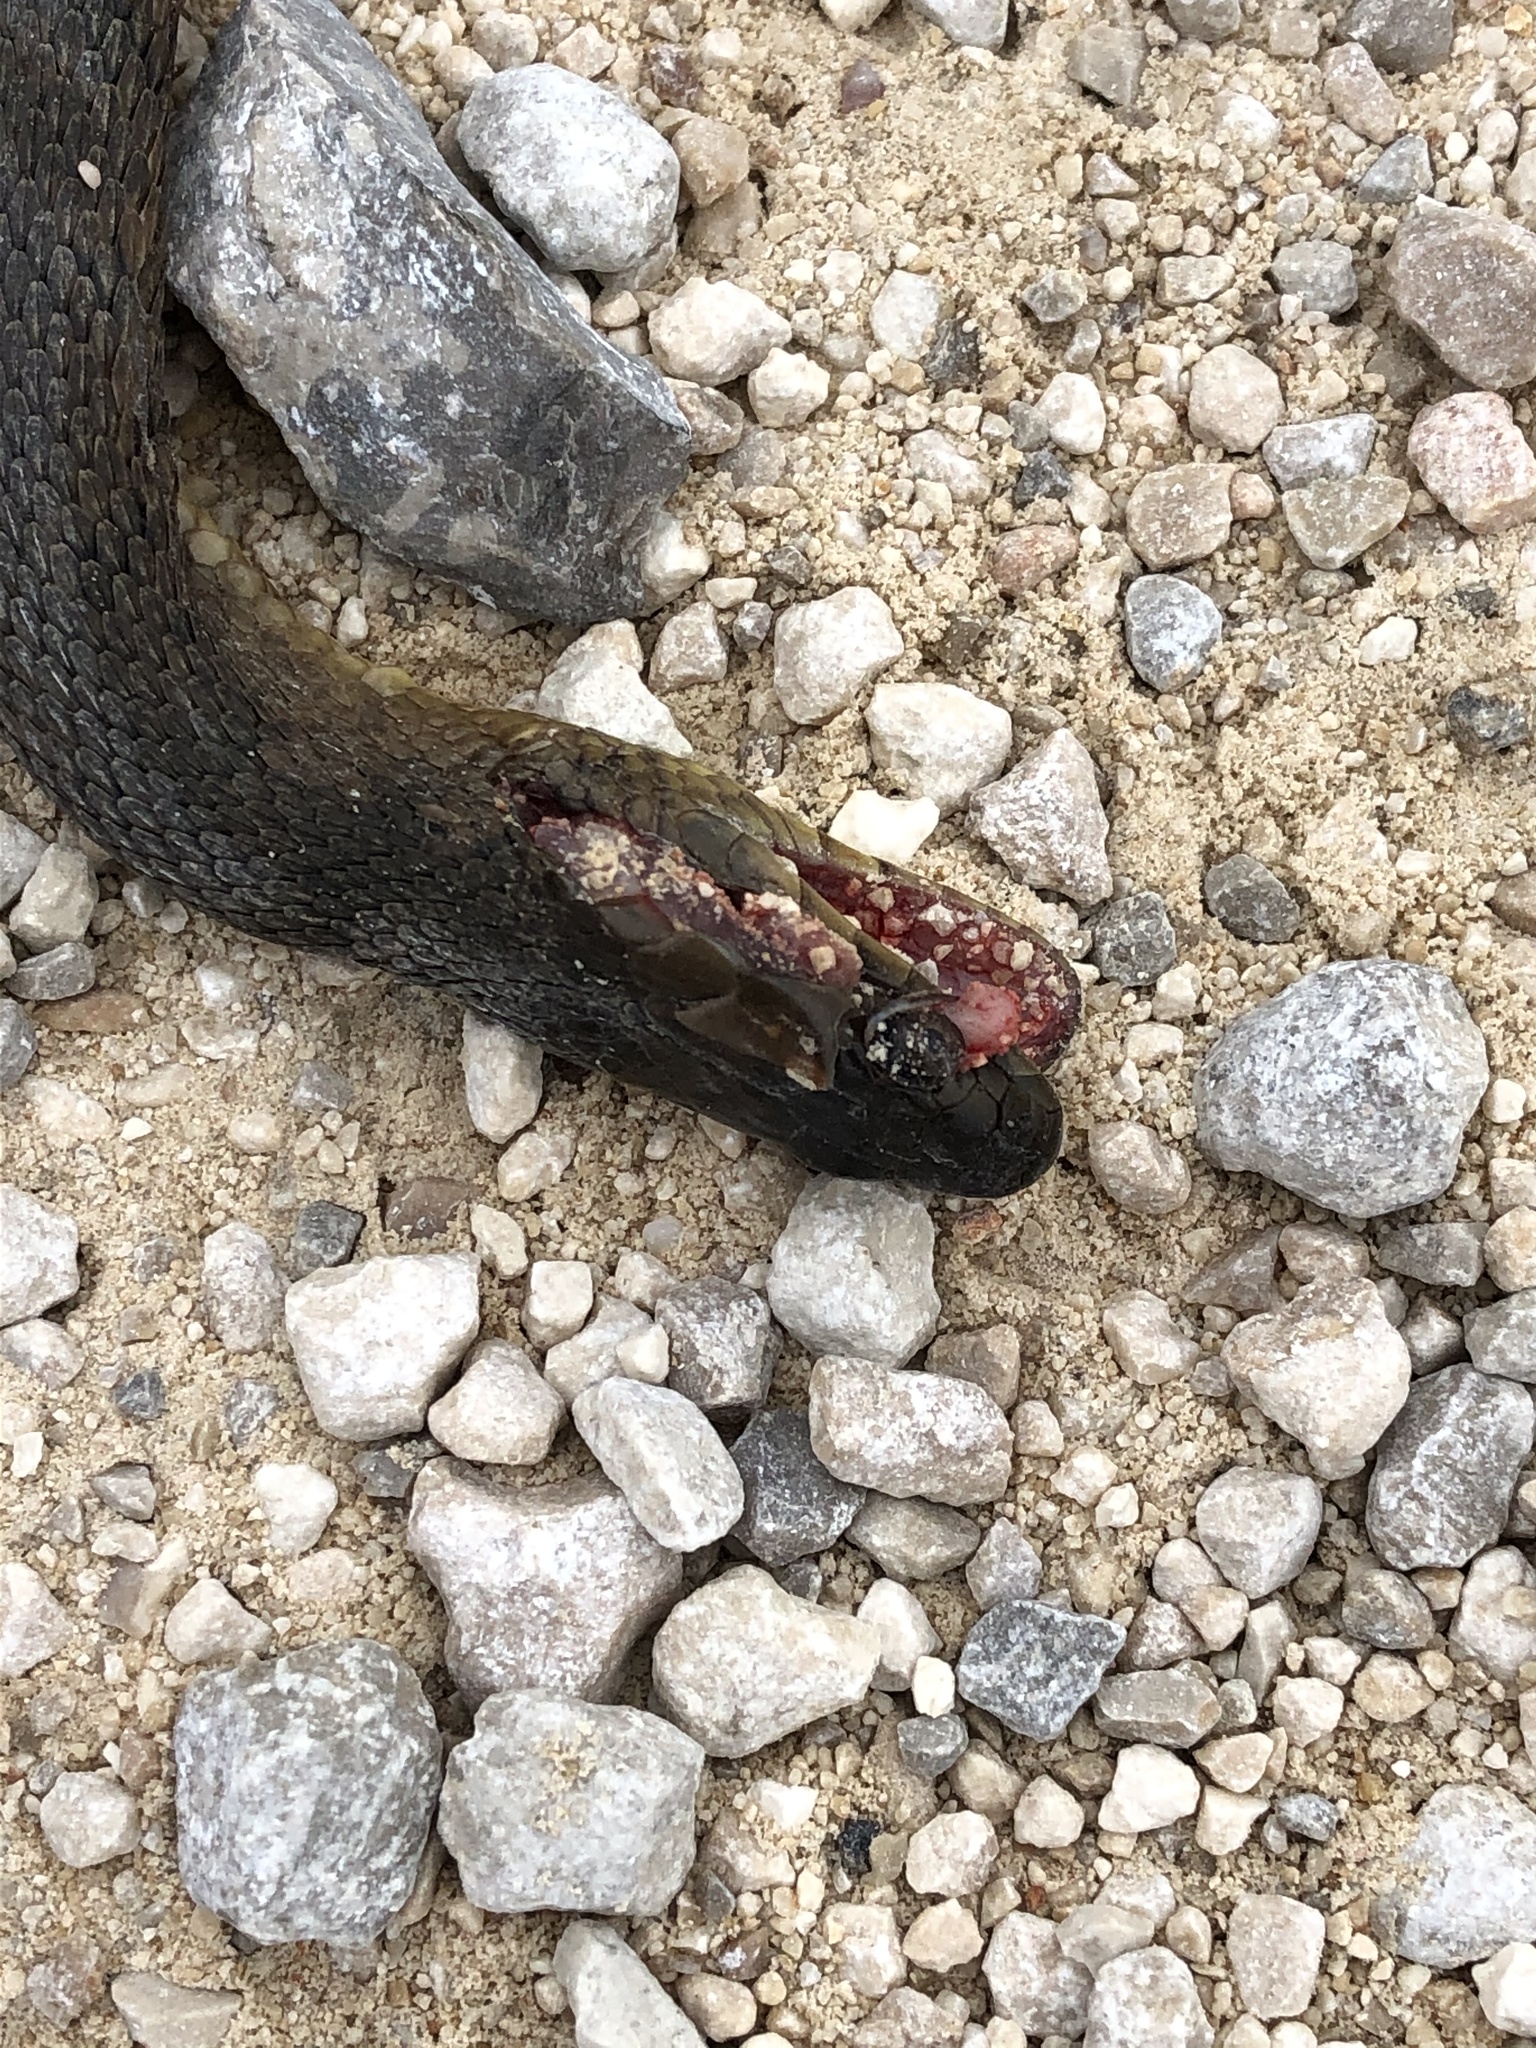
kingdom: Animalia
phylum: Chordata
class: Squamata
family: Colubridae
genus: Nerodia
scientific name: Nerodia cyclopion
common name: Mississippi green water snake
